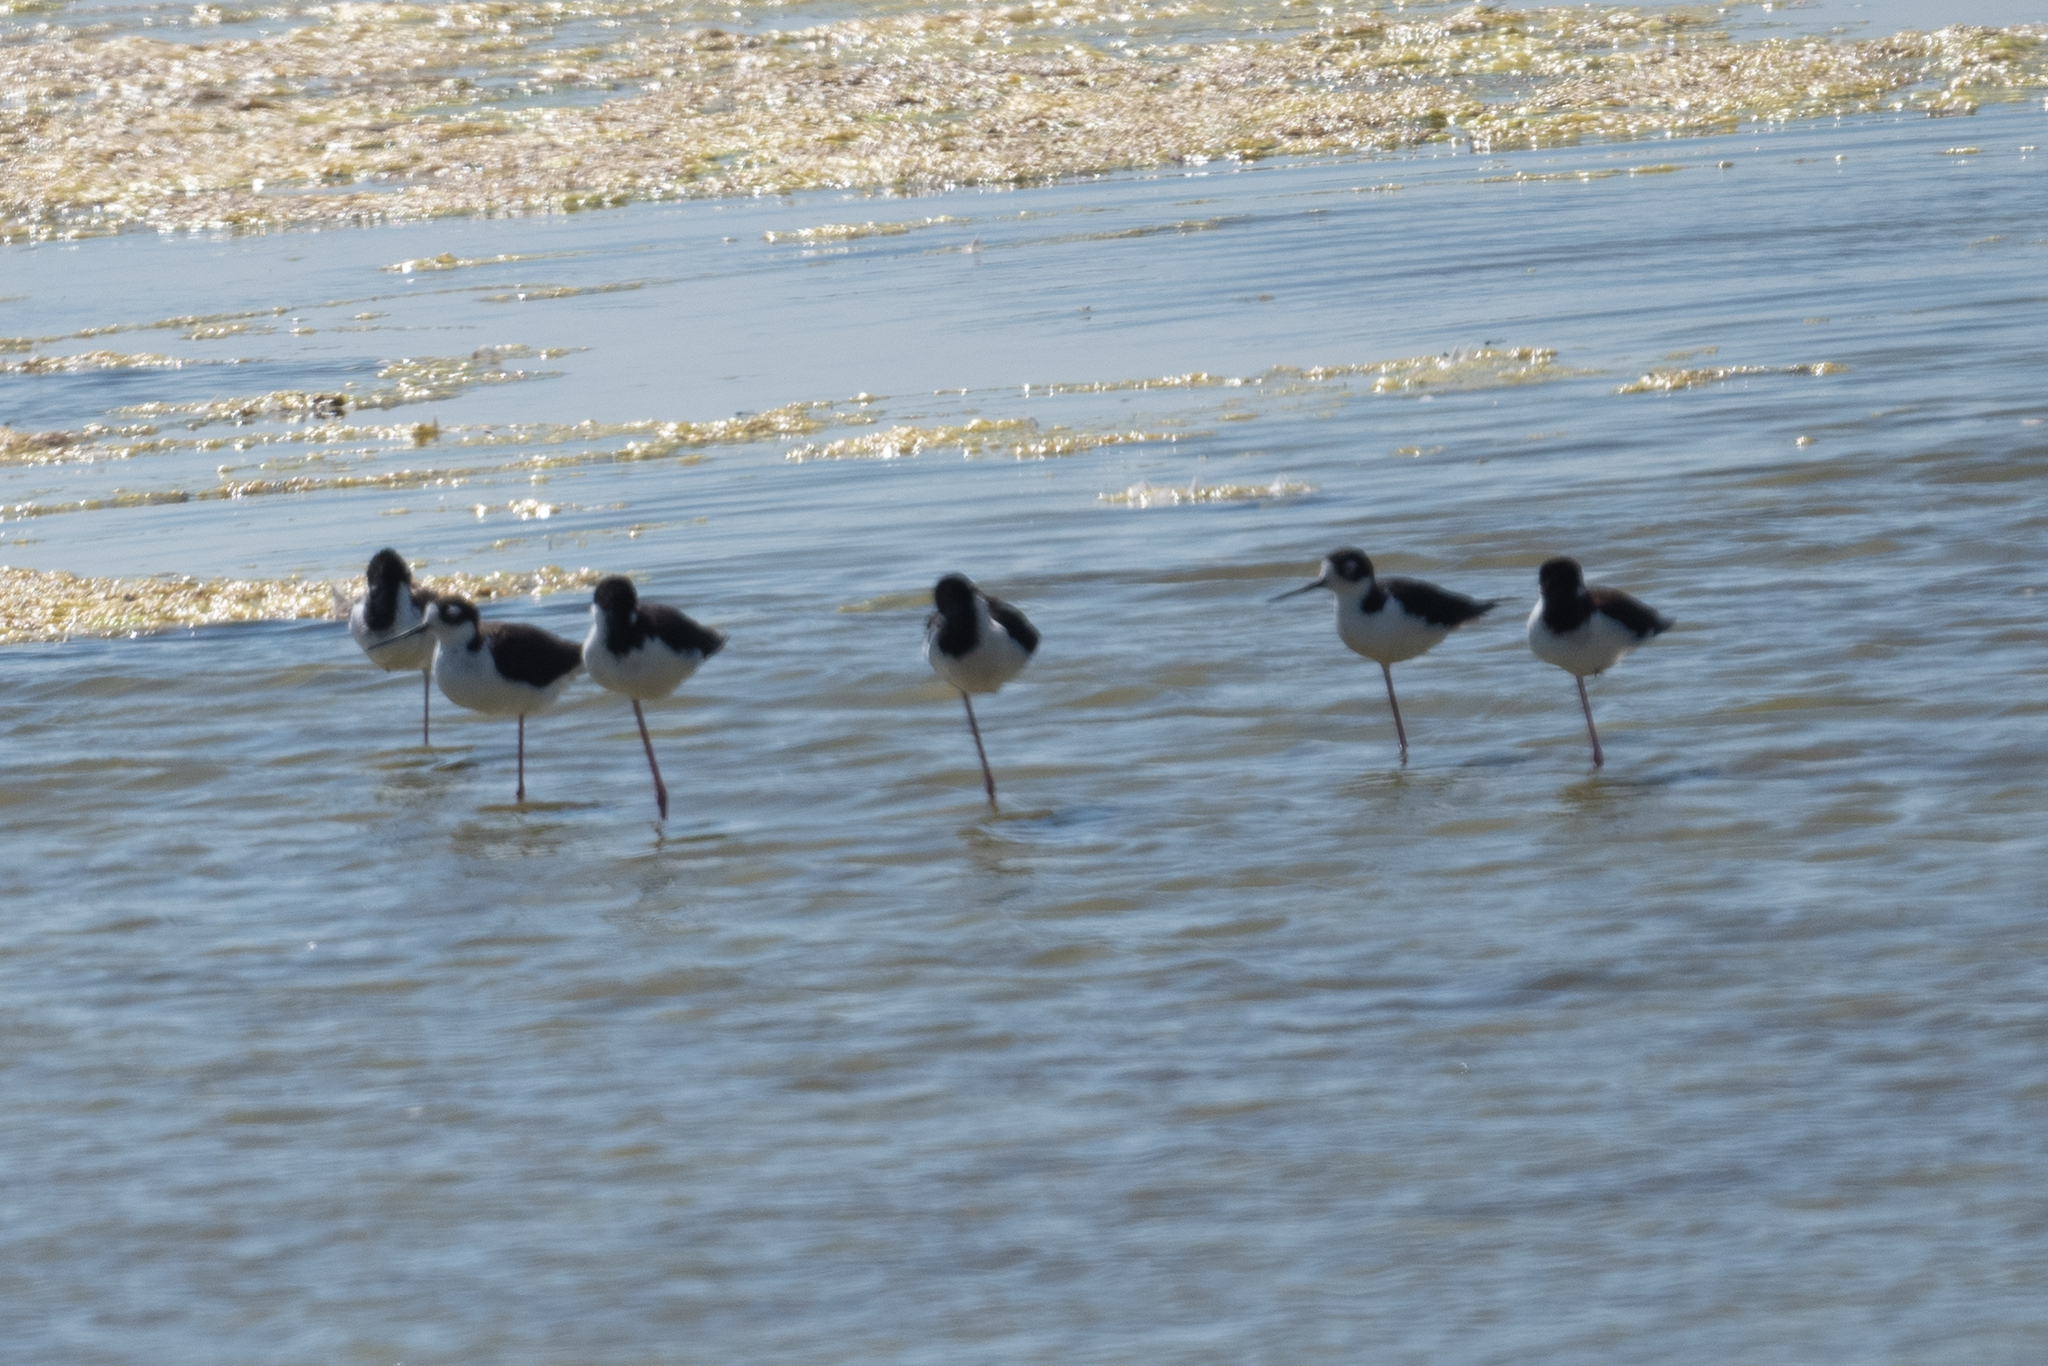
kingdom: Animalia
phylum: Chordata
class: Aves
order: Charadriiformes
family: Recurvirostridae
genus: Himantopus
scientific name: Himantopus mexicanus
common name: Black-necked stilt
